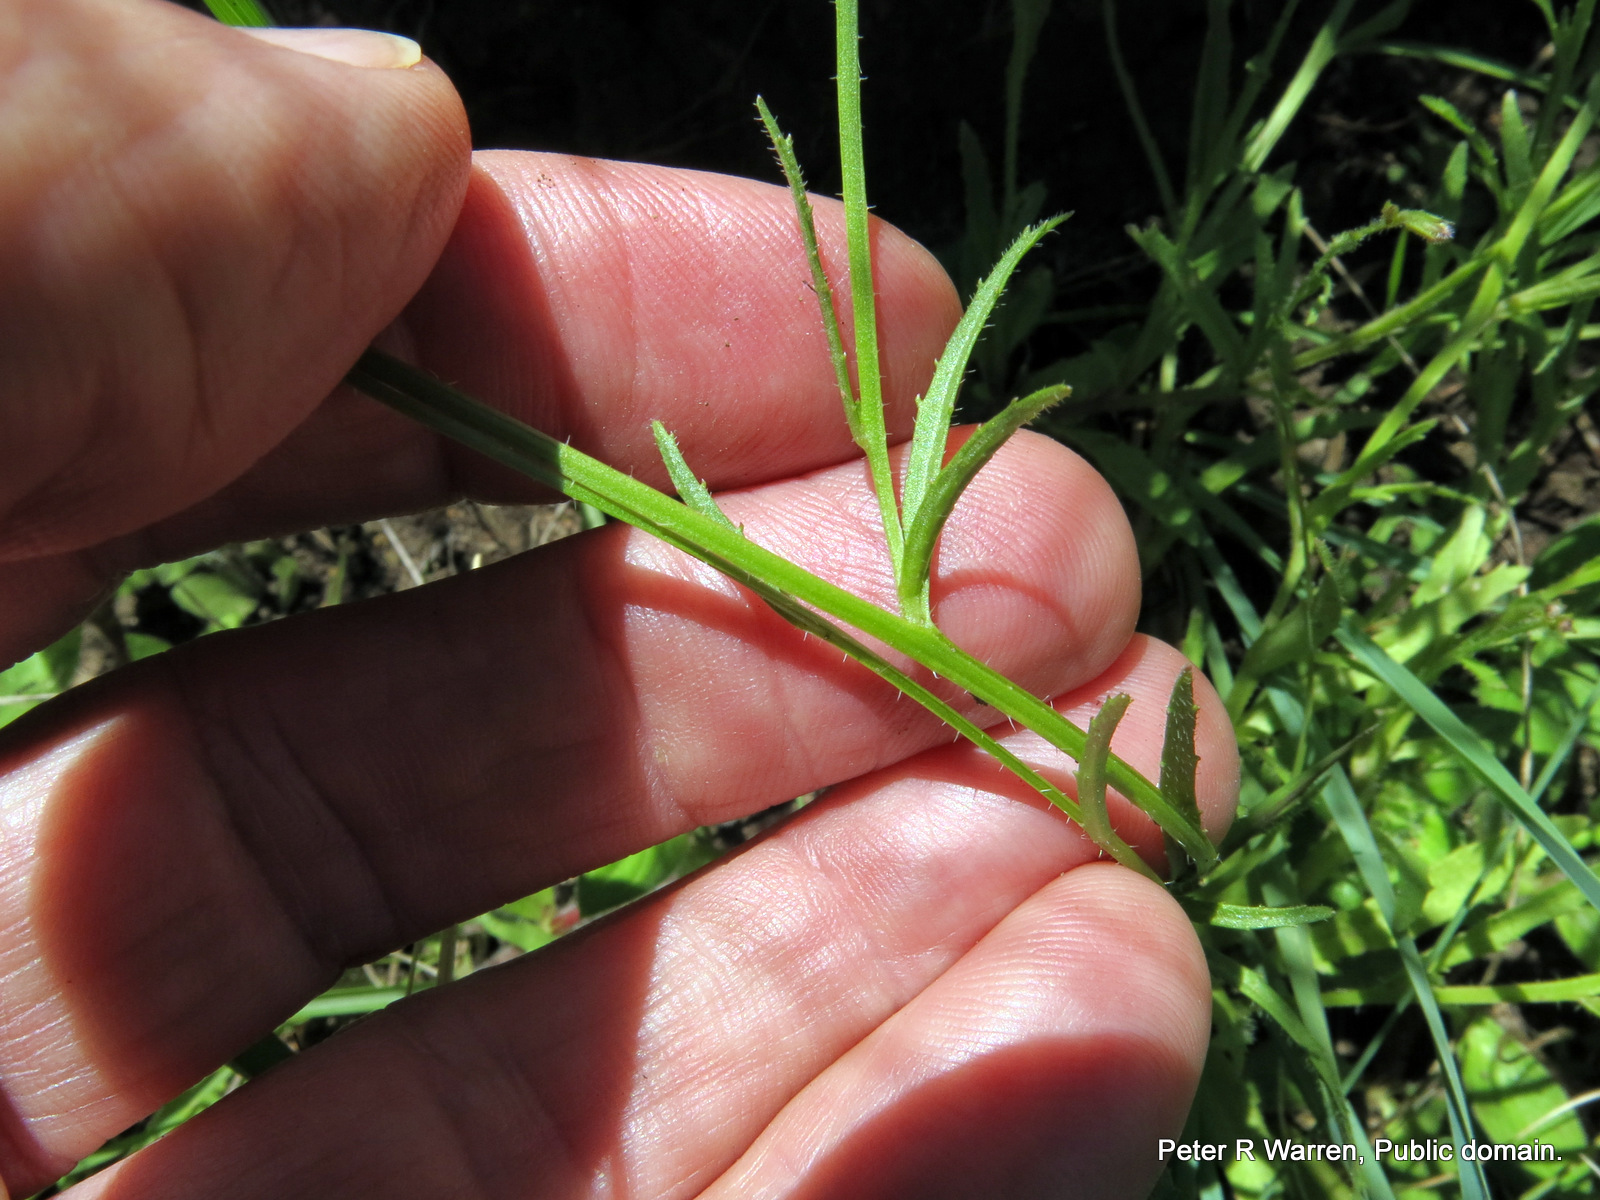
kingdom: Plantae
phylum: Tracheophyta
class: Magnoliopsida
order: Asterales
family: Campanulaceae
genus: Lobelia
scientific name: Lobelia flaccida
